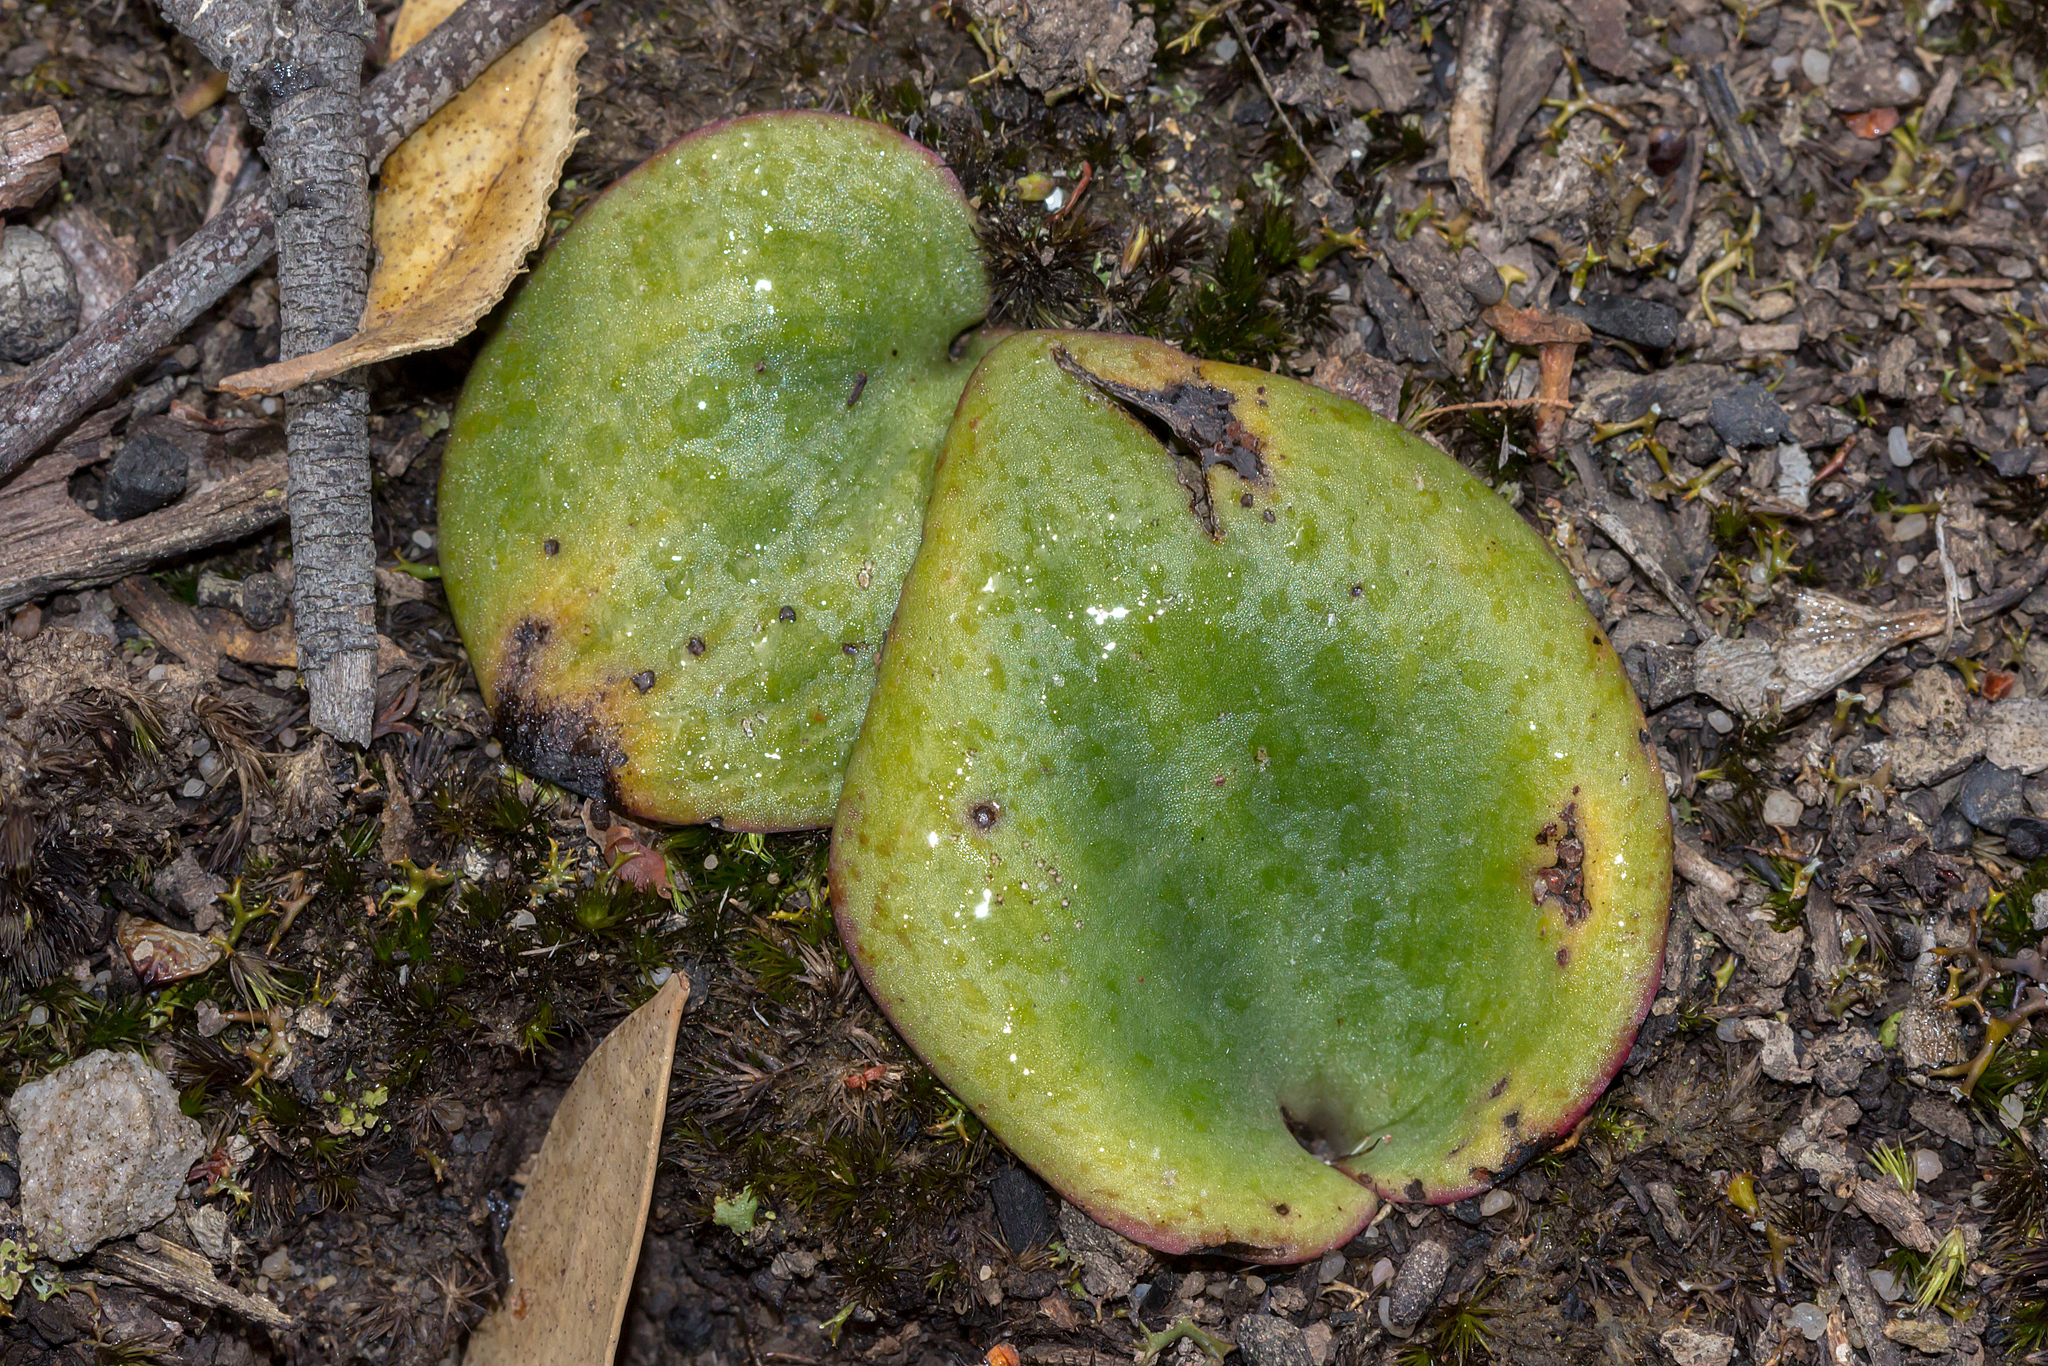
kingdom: Plantae
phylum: Tracheophyta
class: Liliopsida
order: Asparagales
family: Orchidaceae
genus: Pyrorchis
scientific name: Pyrorchis nigricans
